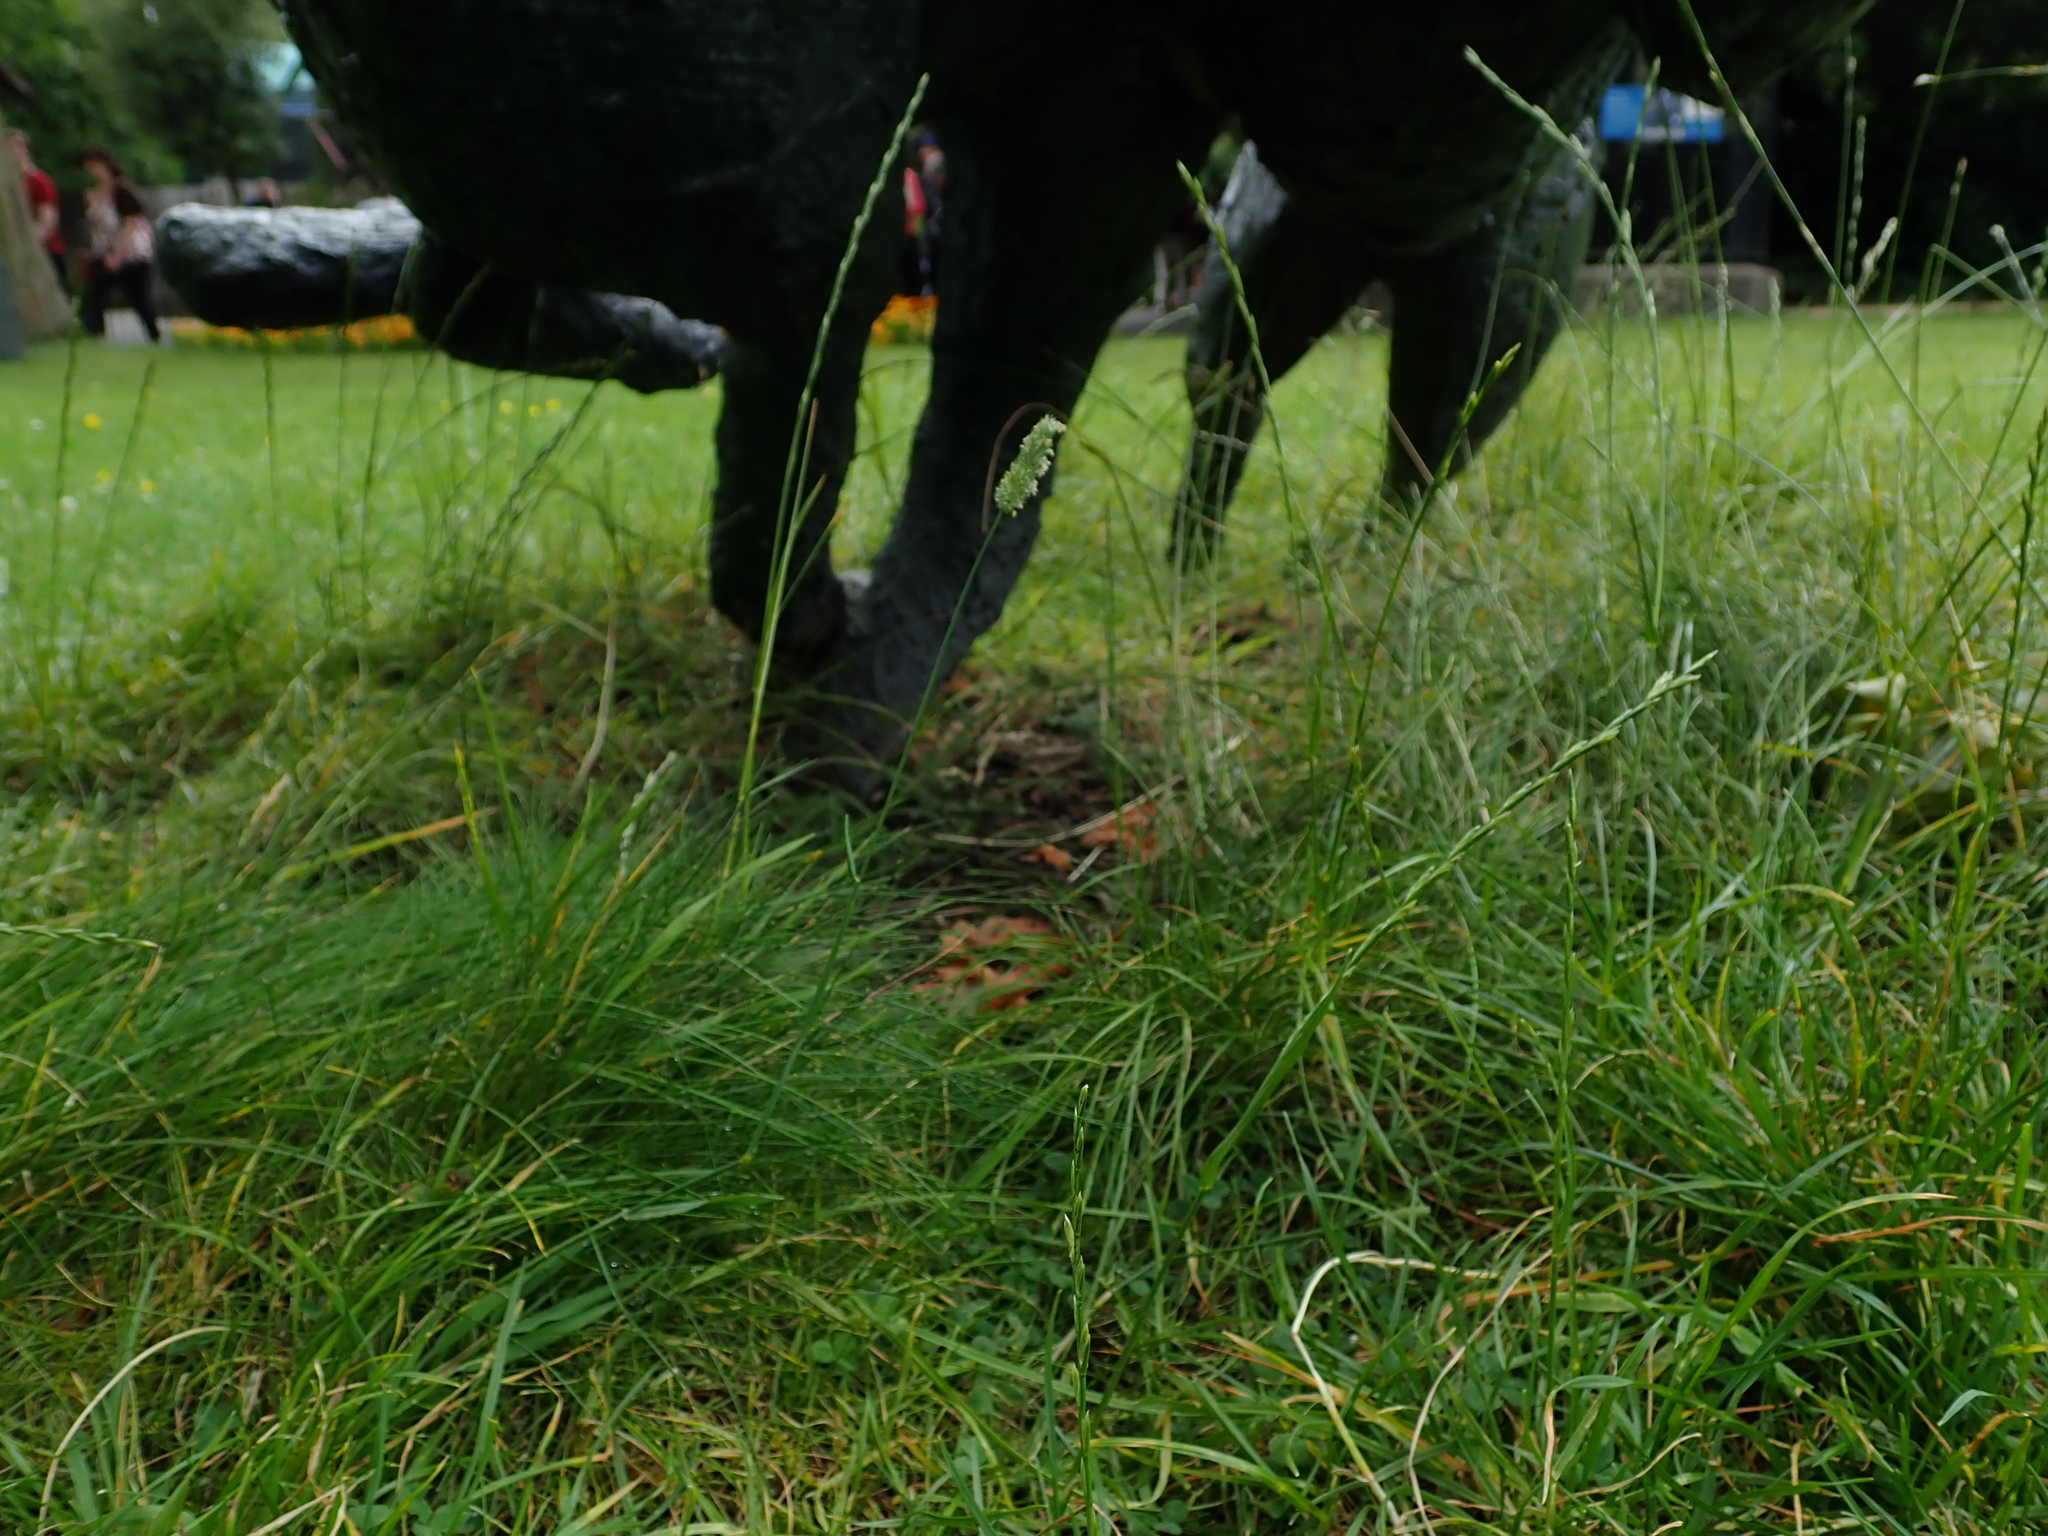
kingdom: Plantae
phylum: Tracheophyta
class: Liliopsida
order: Poales
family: Poaceae
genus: Phleum
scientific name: Phleum bertolonii
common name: Smaller cat's-tail
